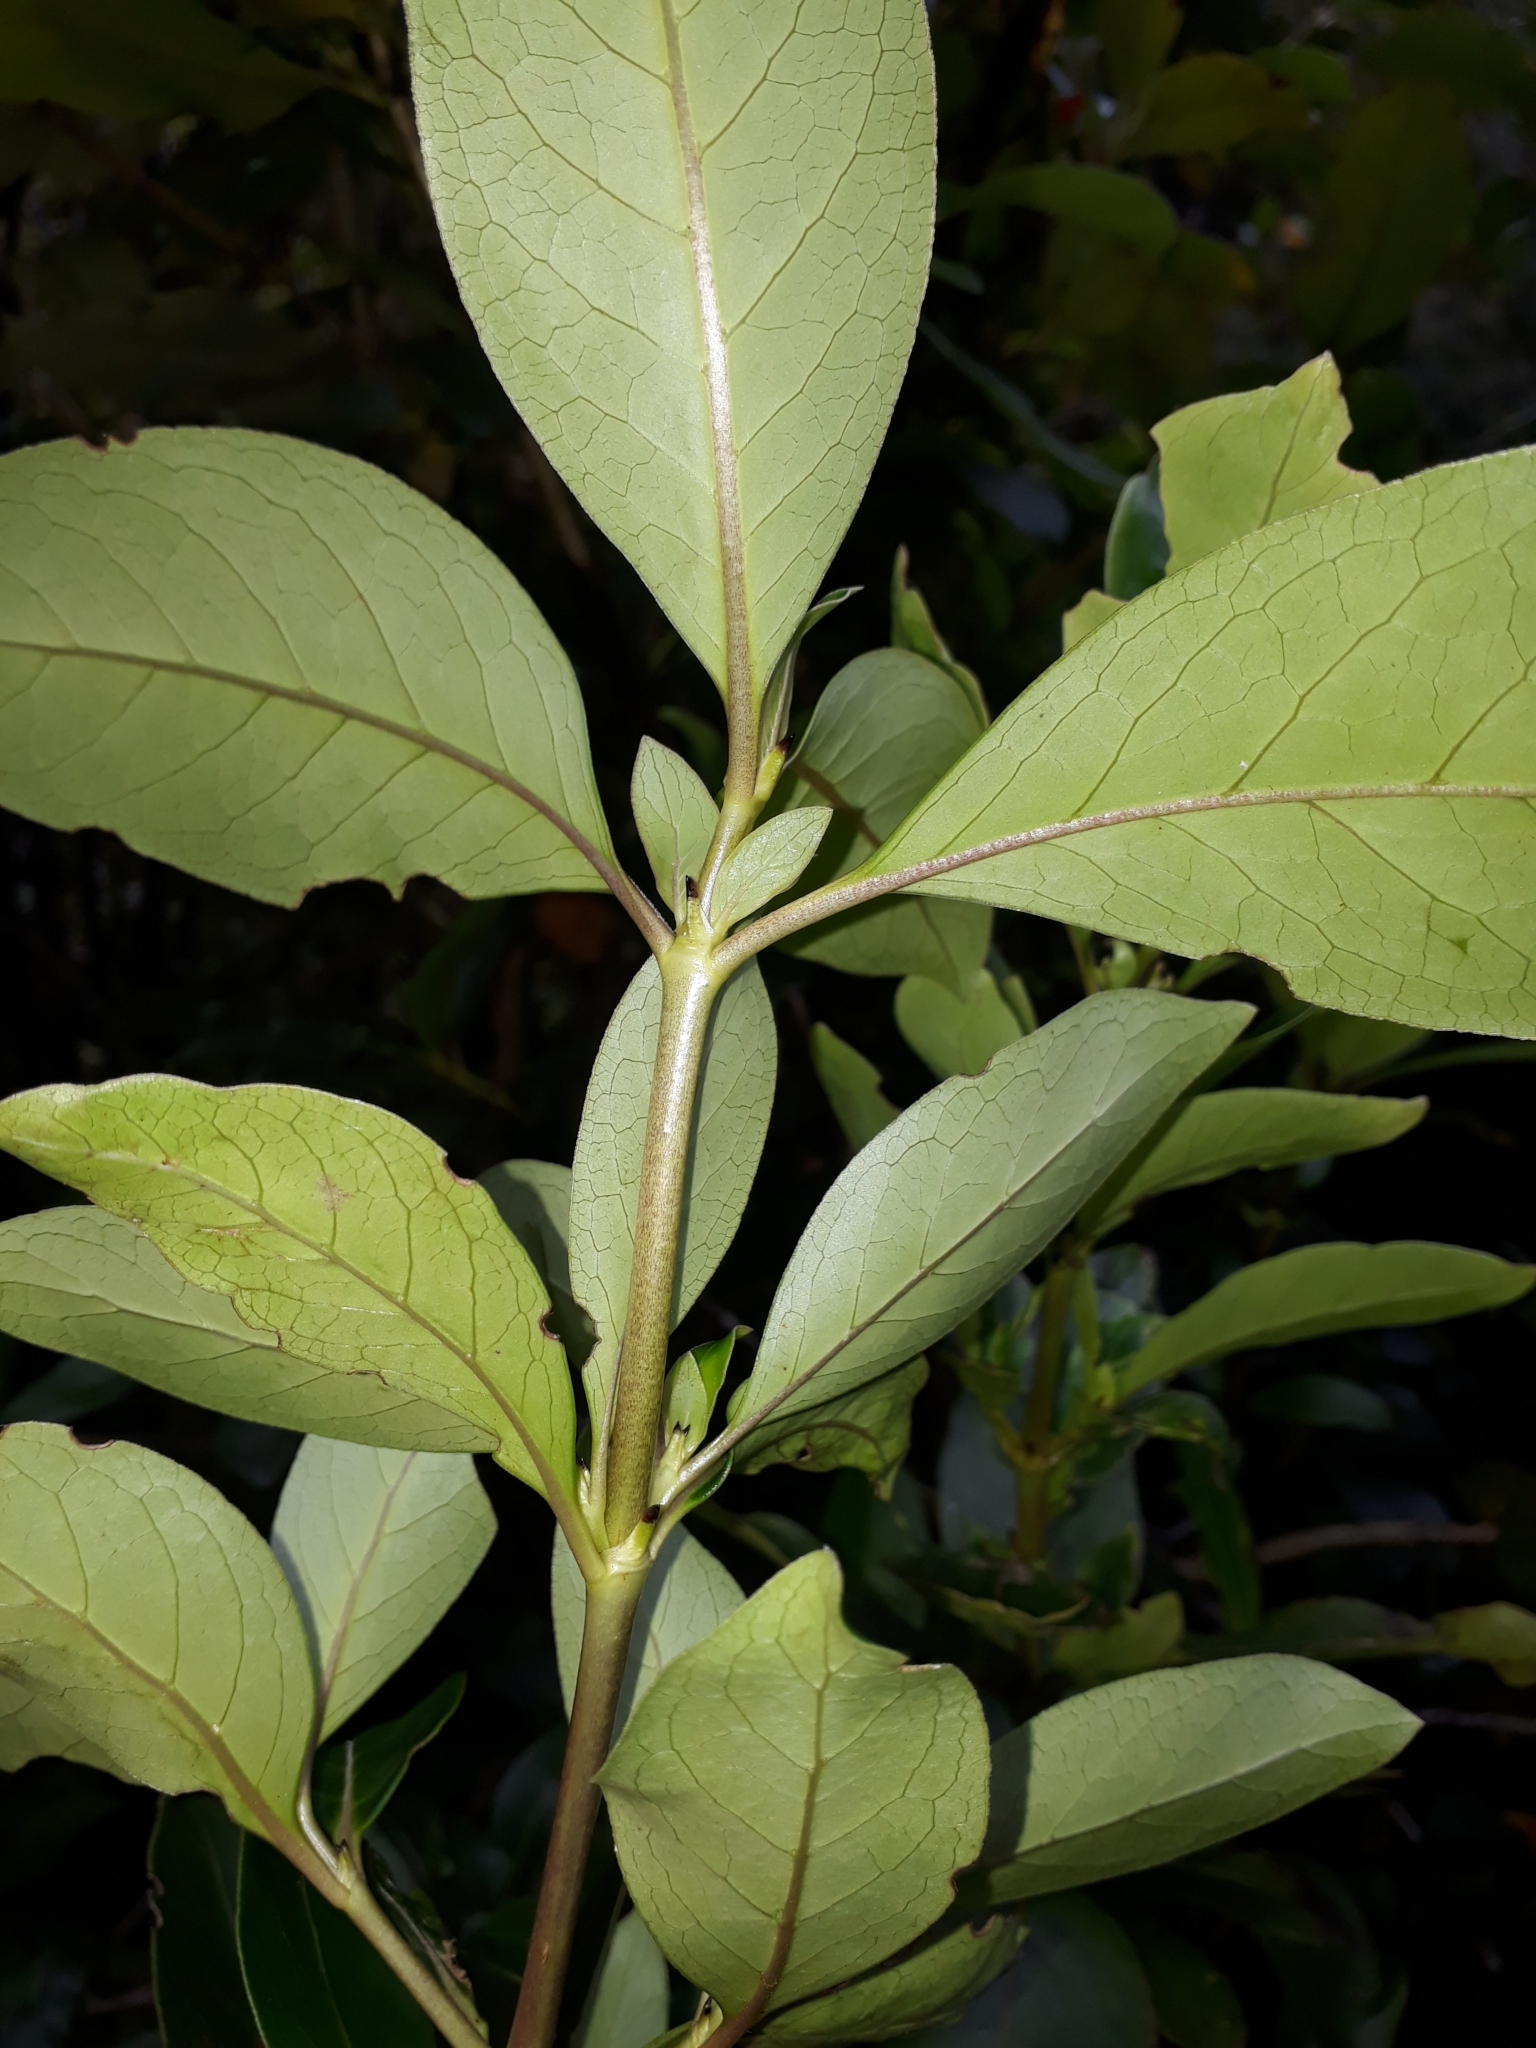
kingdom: Plantae
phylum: Tracheophyta
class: Magnoliopsida
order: Gentianales
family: Rubiaceae
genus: Coprosma
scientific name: Coprosma robusta
